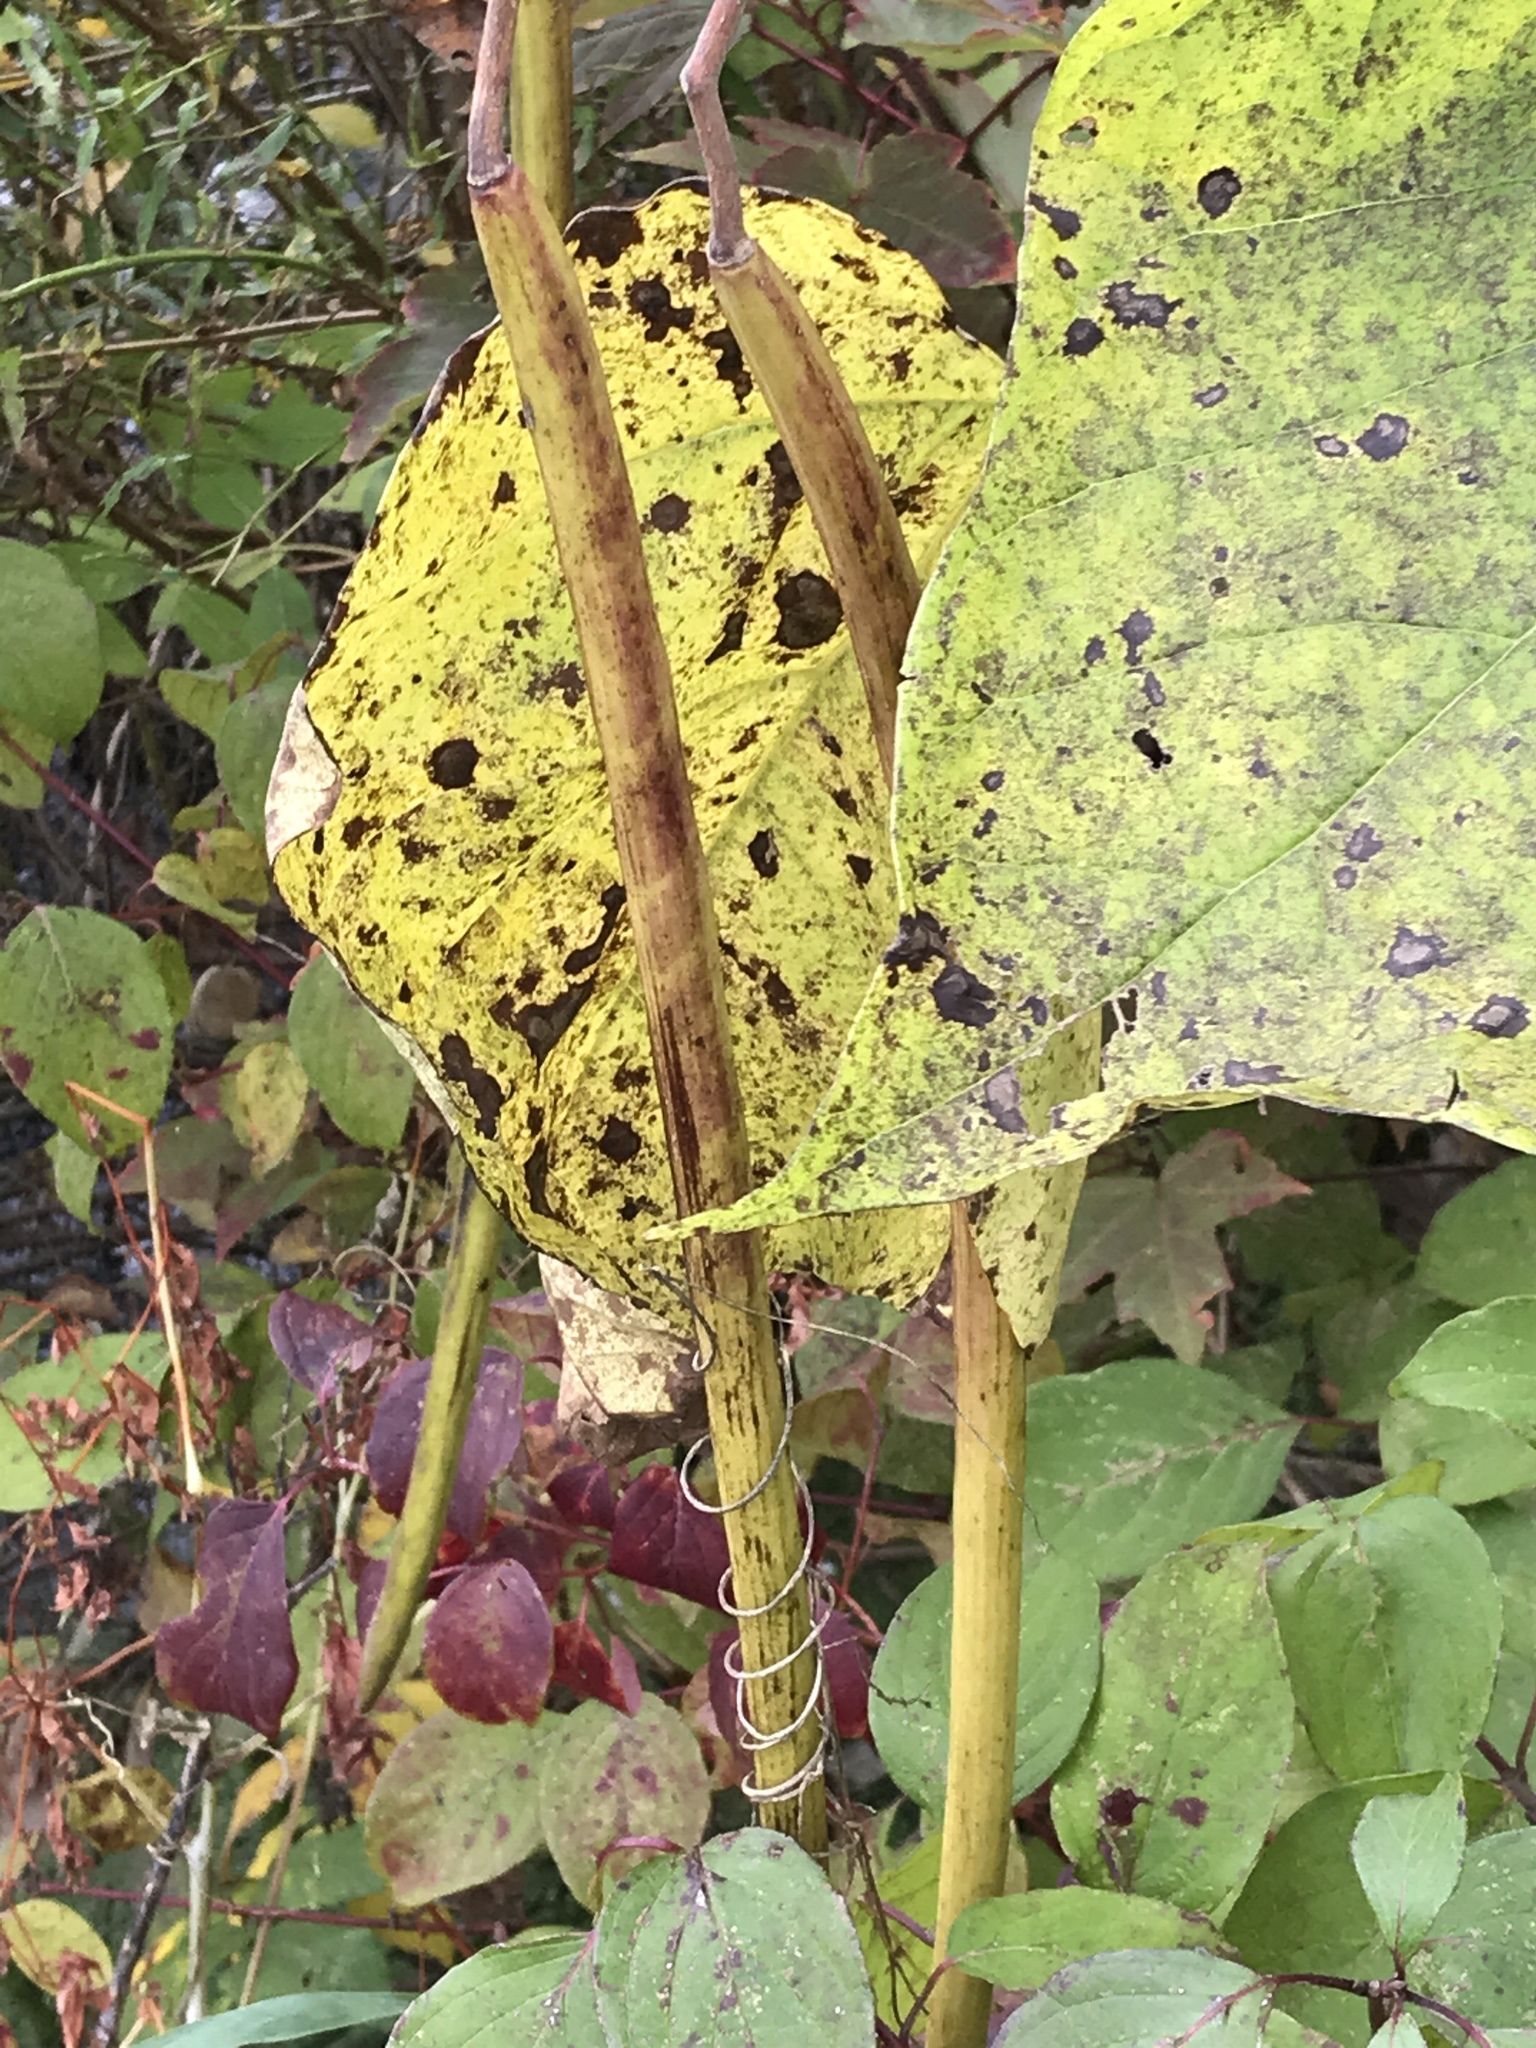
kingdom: Plantae
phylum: Tracheophyta
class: Magnoliopsida
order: Lamiales
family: Bignoniaceae
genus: Catalpa
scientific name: Catalpa speciosa
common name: Northern catalpa
